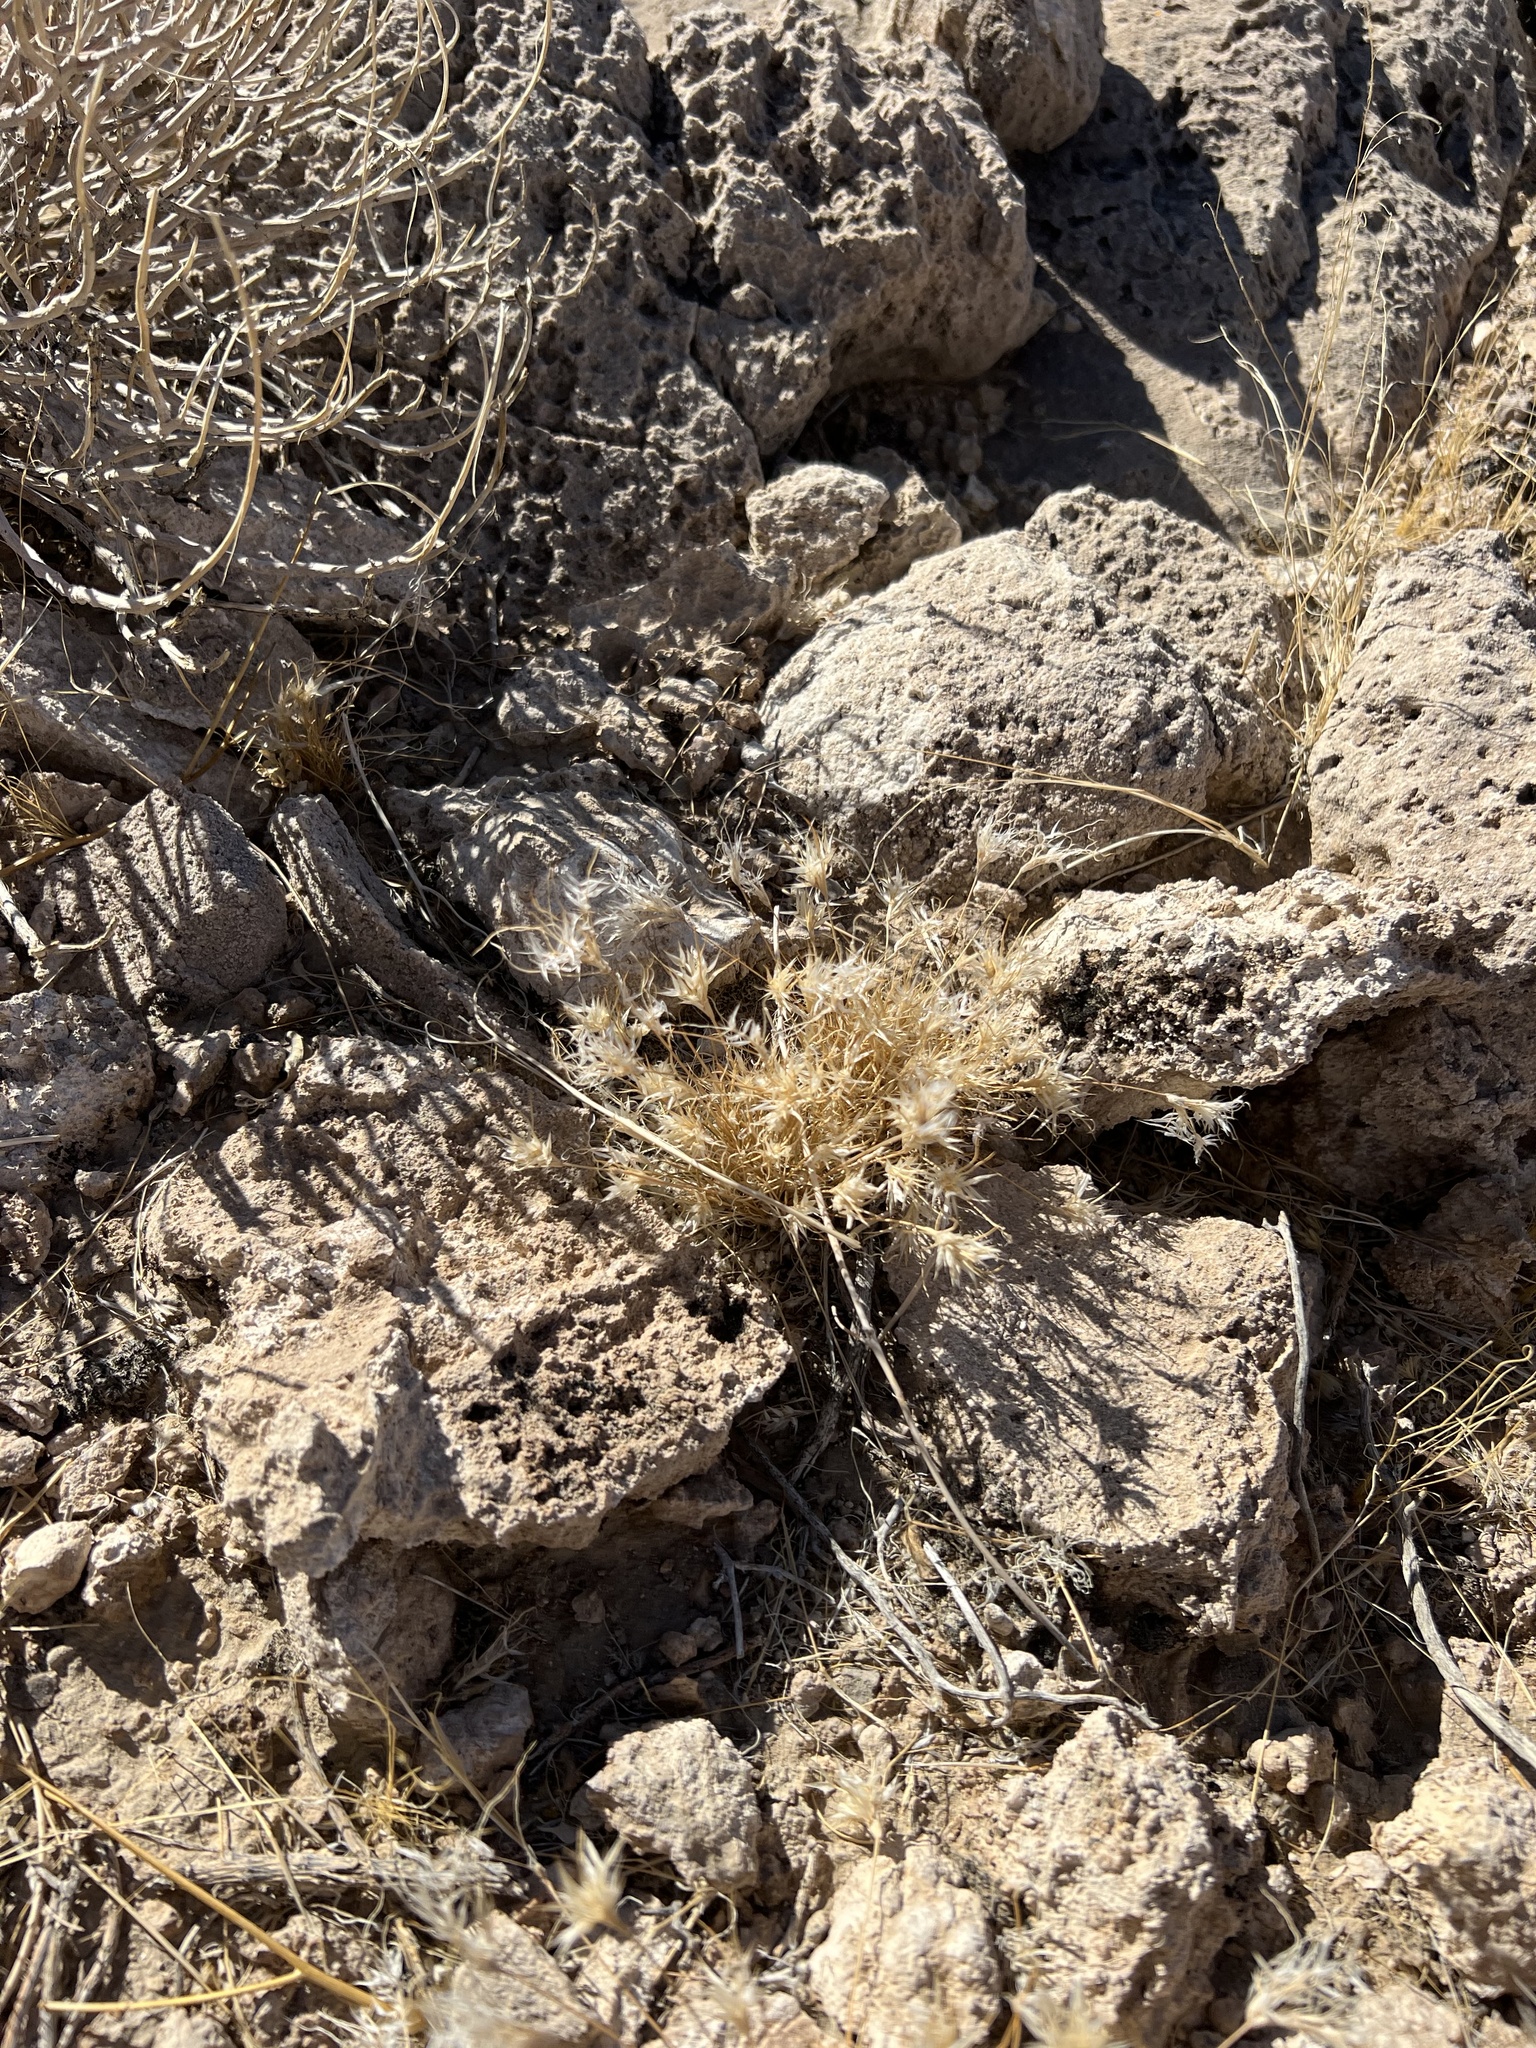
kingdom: Plantae
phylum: Tracheophyta
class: Liliopsida
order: Poales
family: Poaceae
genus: Dasyochloa
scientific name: Dasyochloa pulchella
